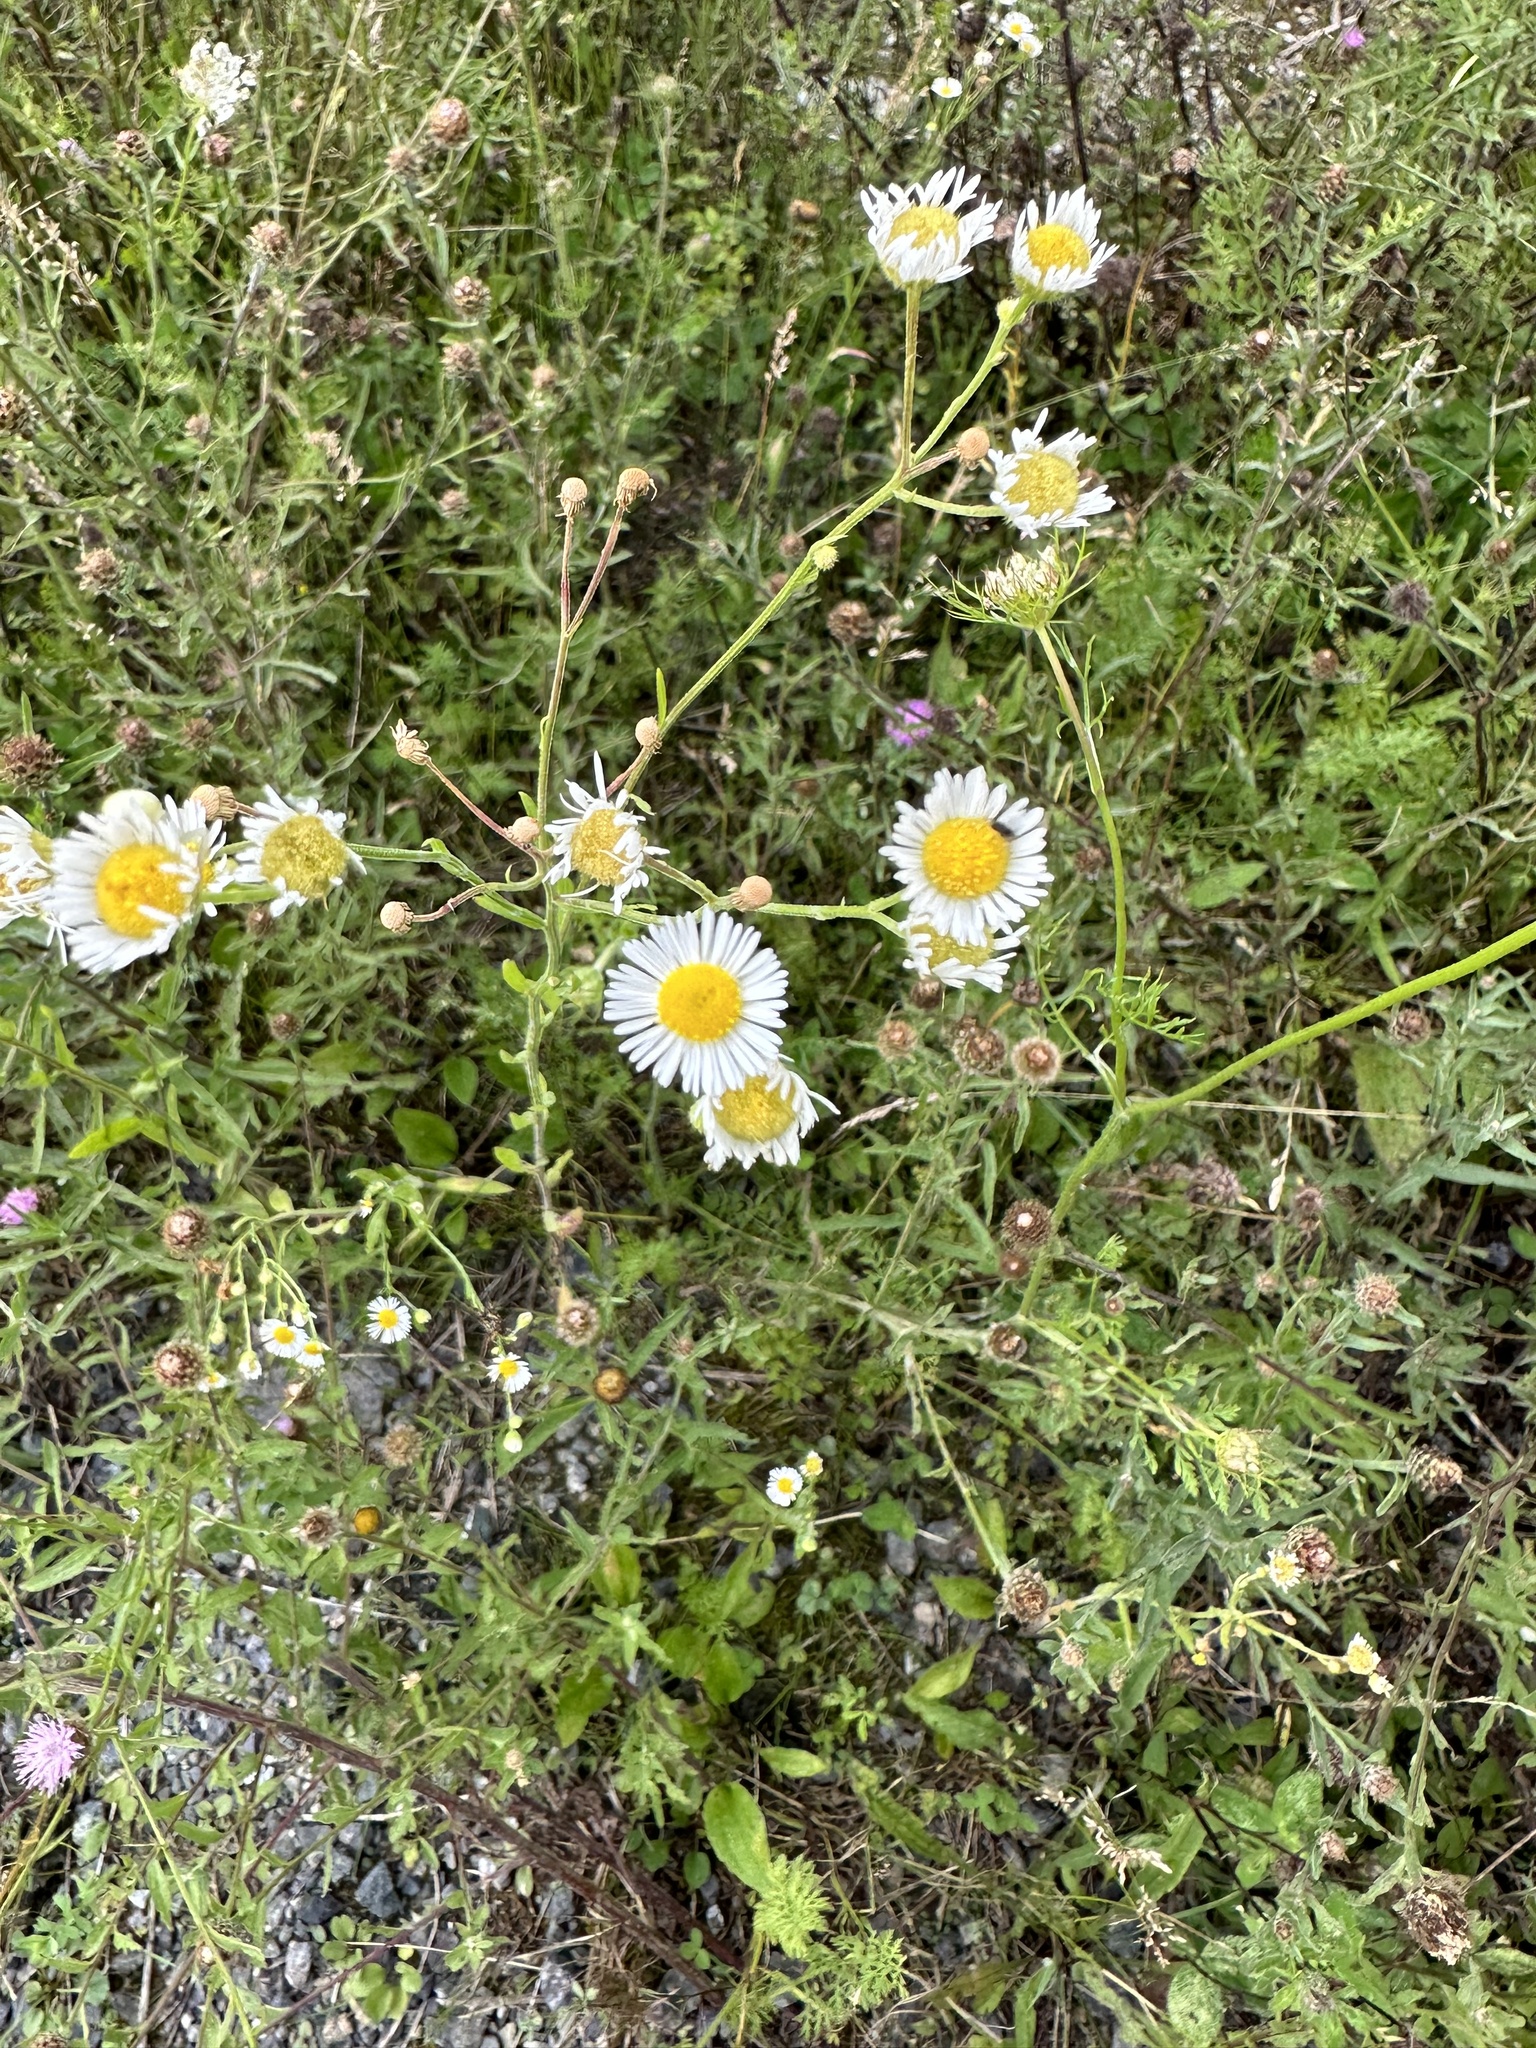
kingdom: Plantae
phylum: Tracheophyta
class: Magnoliopsida
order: Asterales
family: Asteraceae
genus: Erigeron
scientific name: Erigeron strigosus
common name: Common eastern fleabane
